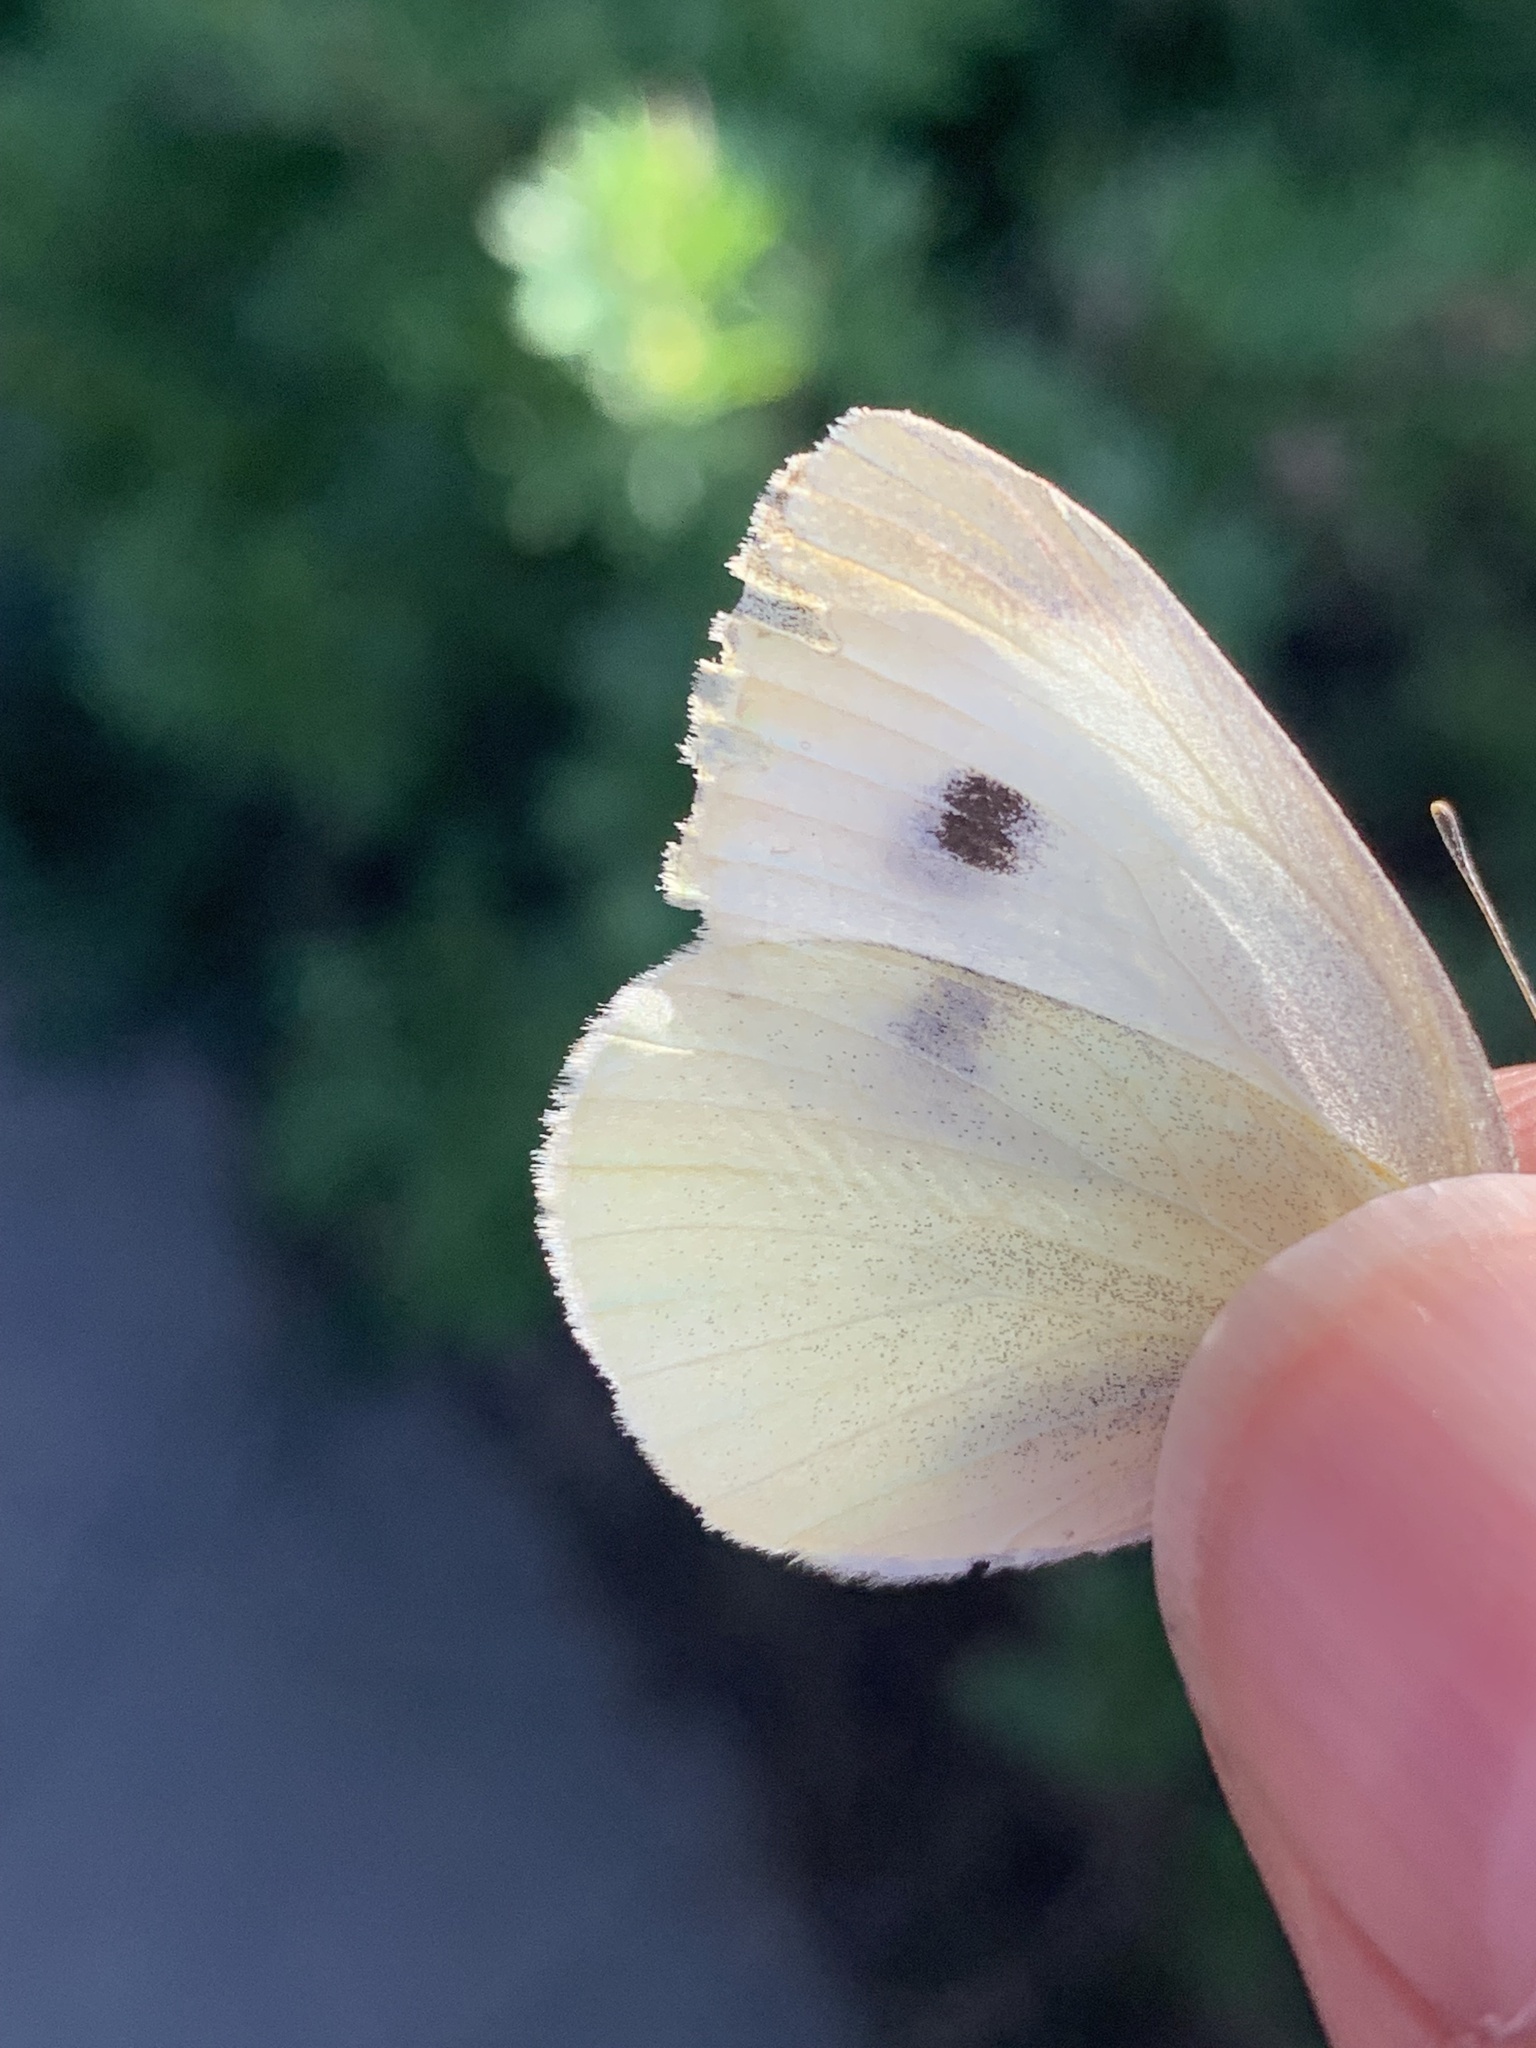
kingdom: Animalia
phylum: Arthropoda
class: Insecta
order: Lepidoptera
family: Pieridae
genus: Pieris
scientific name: Pieris rapae
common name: Small white
